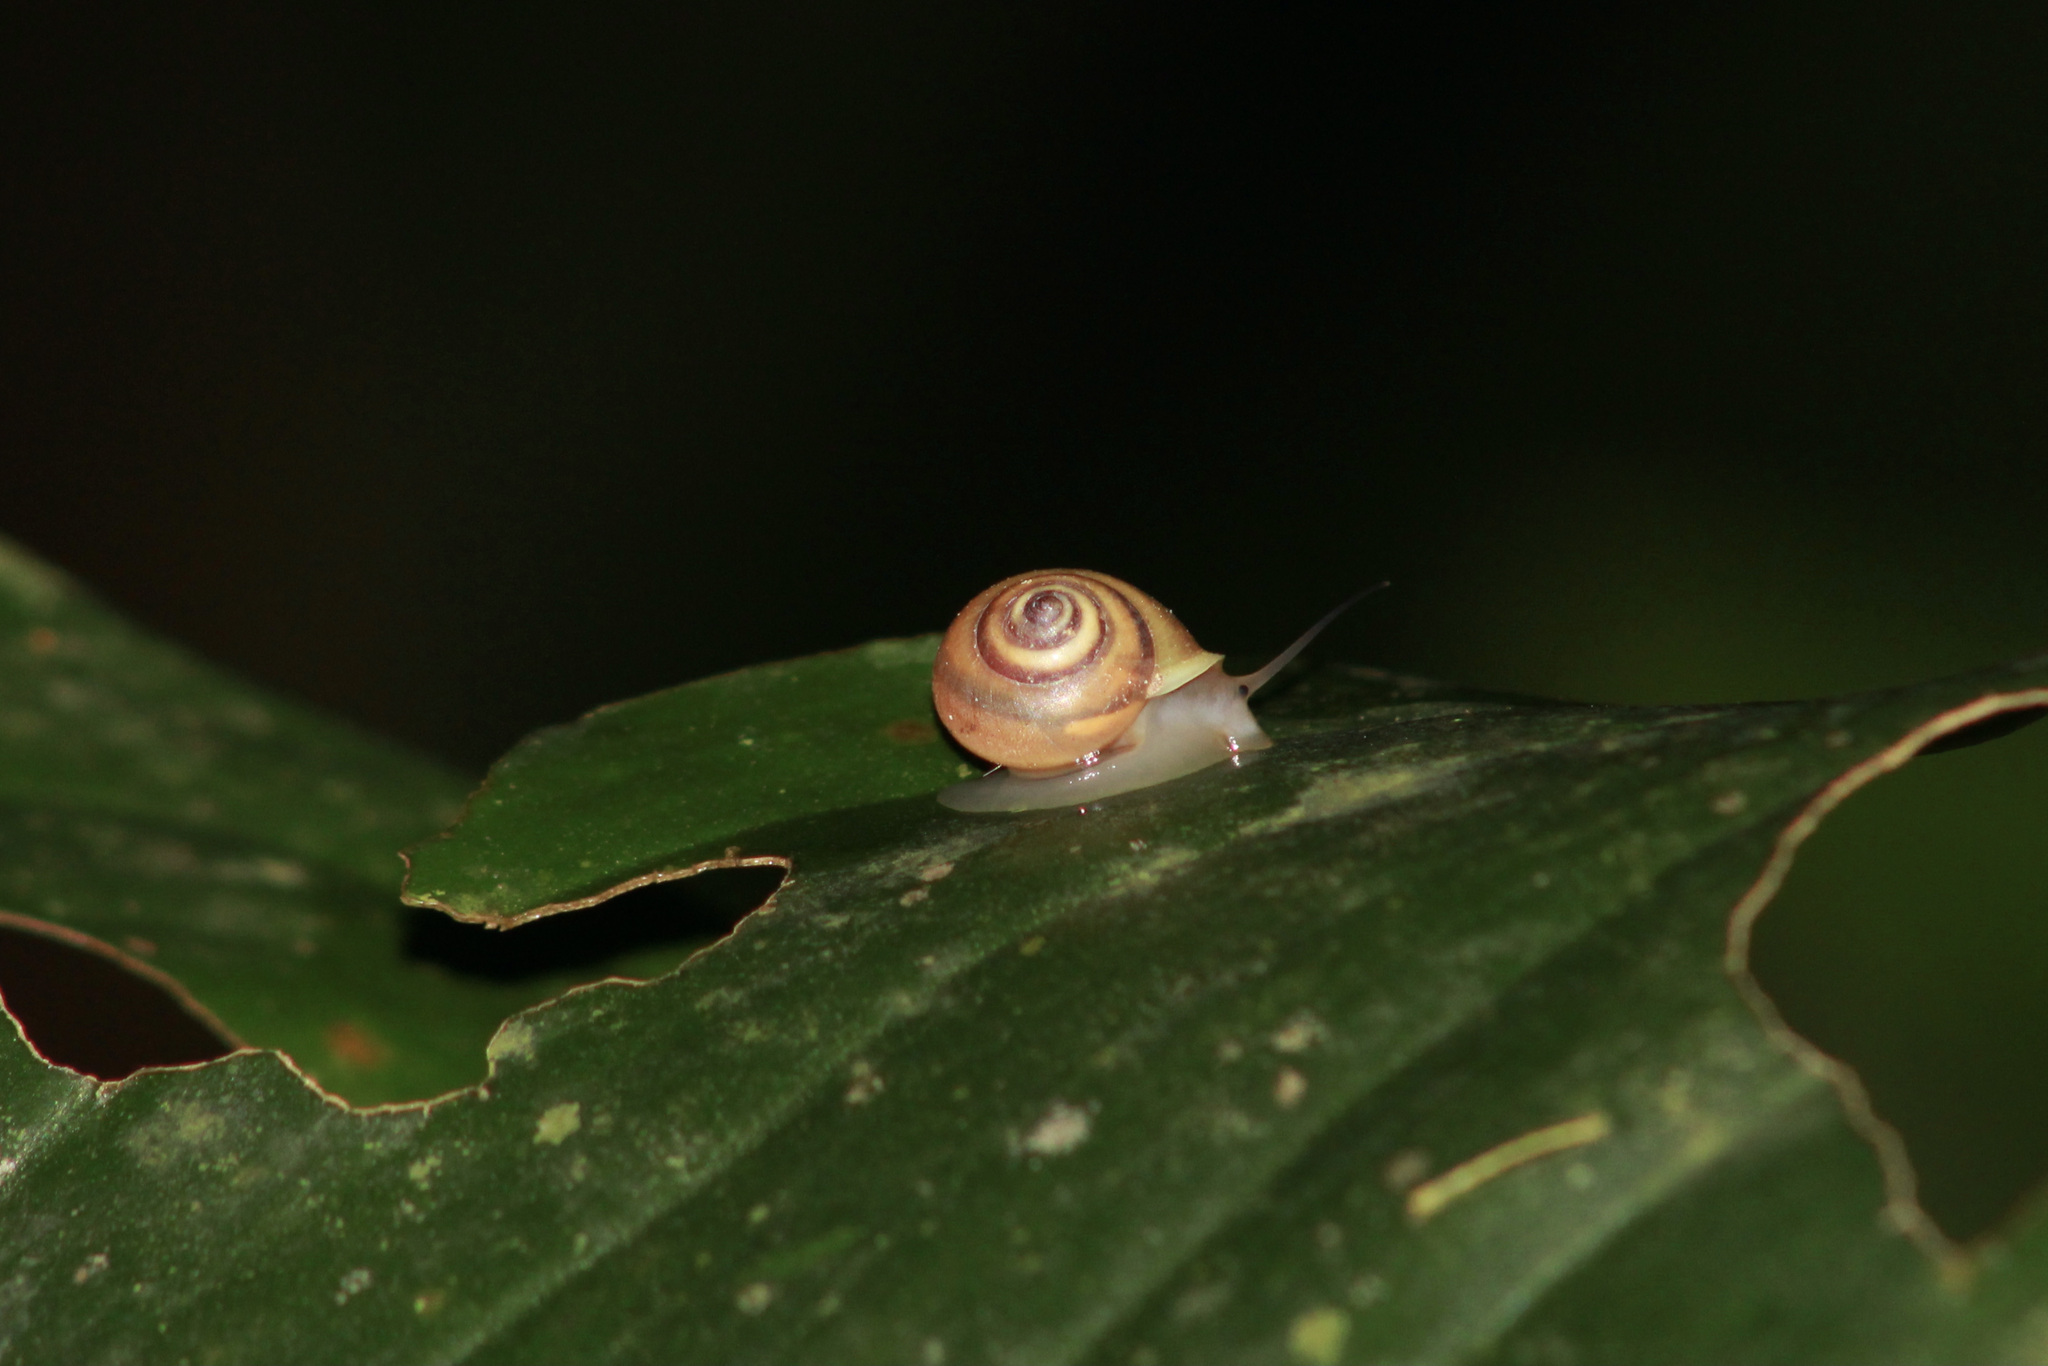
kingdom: Animalia
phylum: Mollusca
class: Gastropoda
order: Cycloneritida
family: Helicinidae
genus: Helicina
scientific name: Helicina nemoralis
